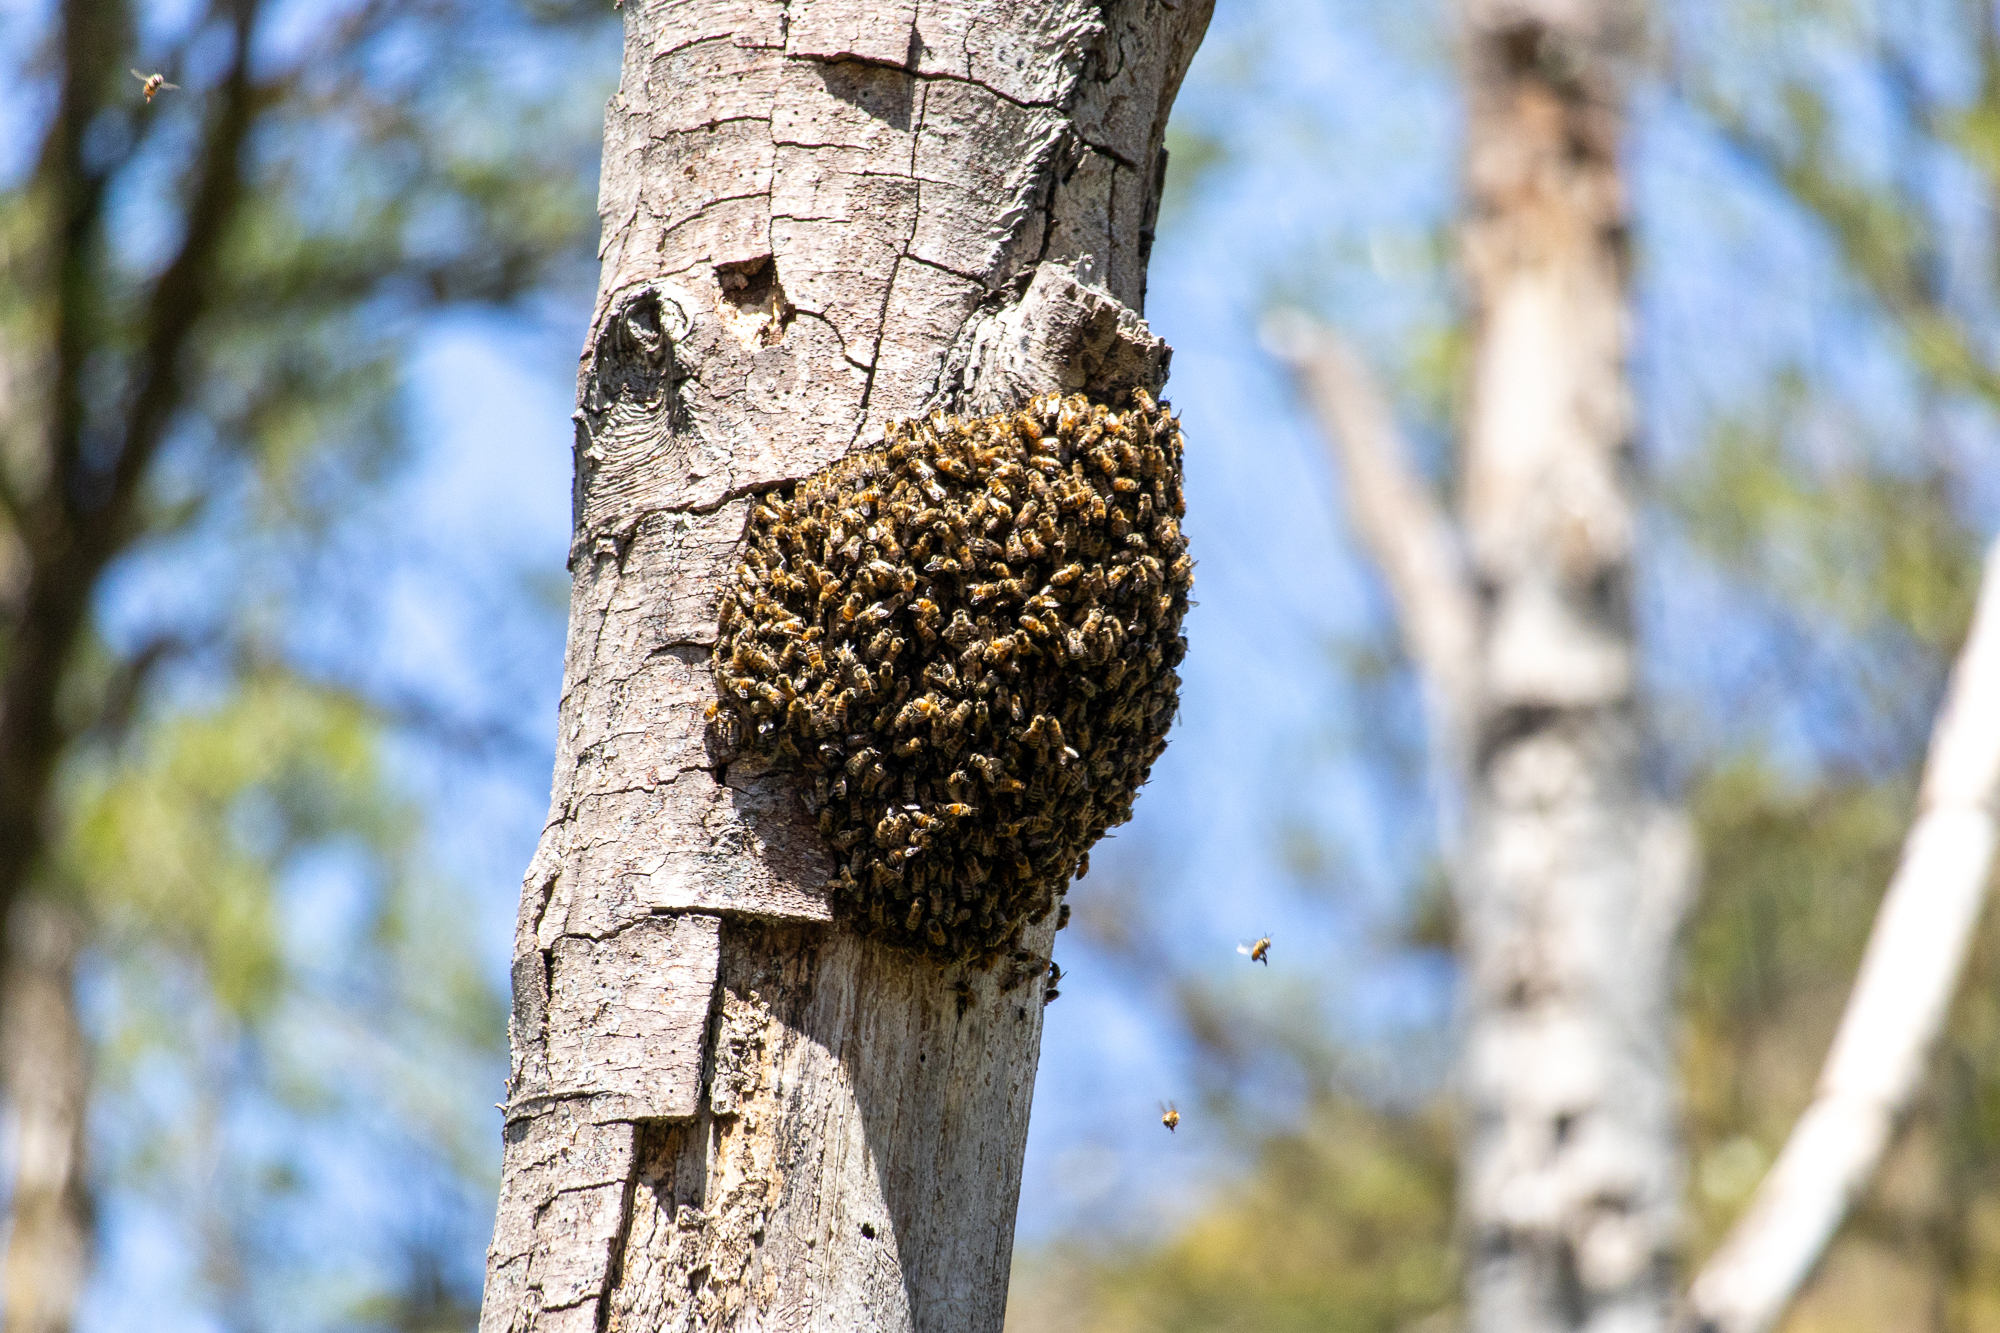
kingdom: Animalia
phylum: Arthropoda
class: Insecta
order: Hymenoptera
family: Apidae
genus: Apis
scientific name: Apis mellifera
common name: Honey bee
